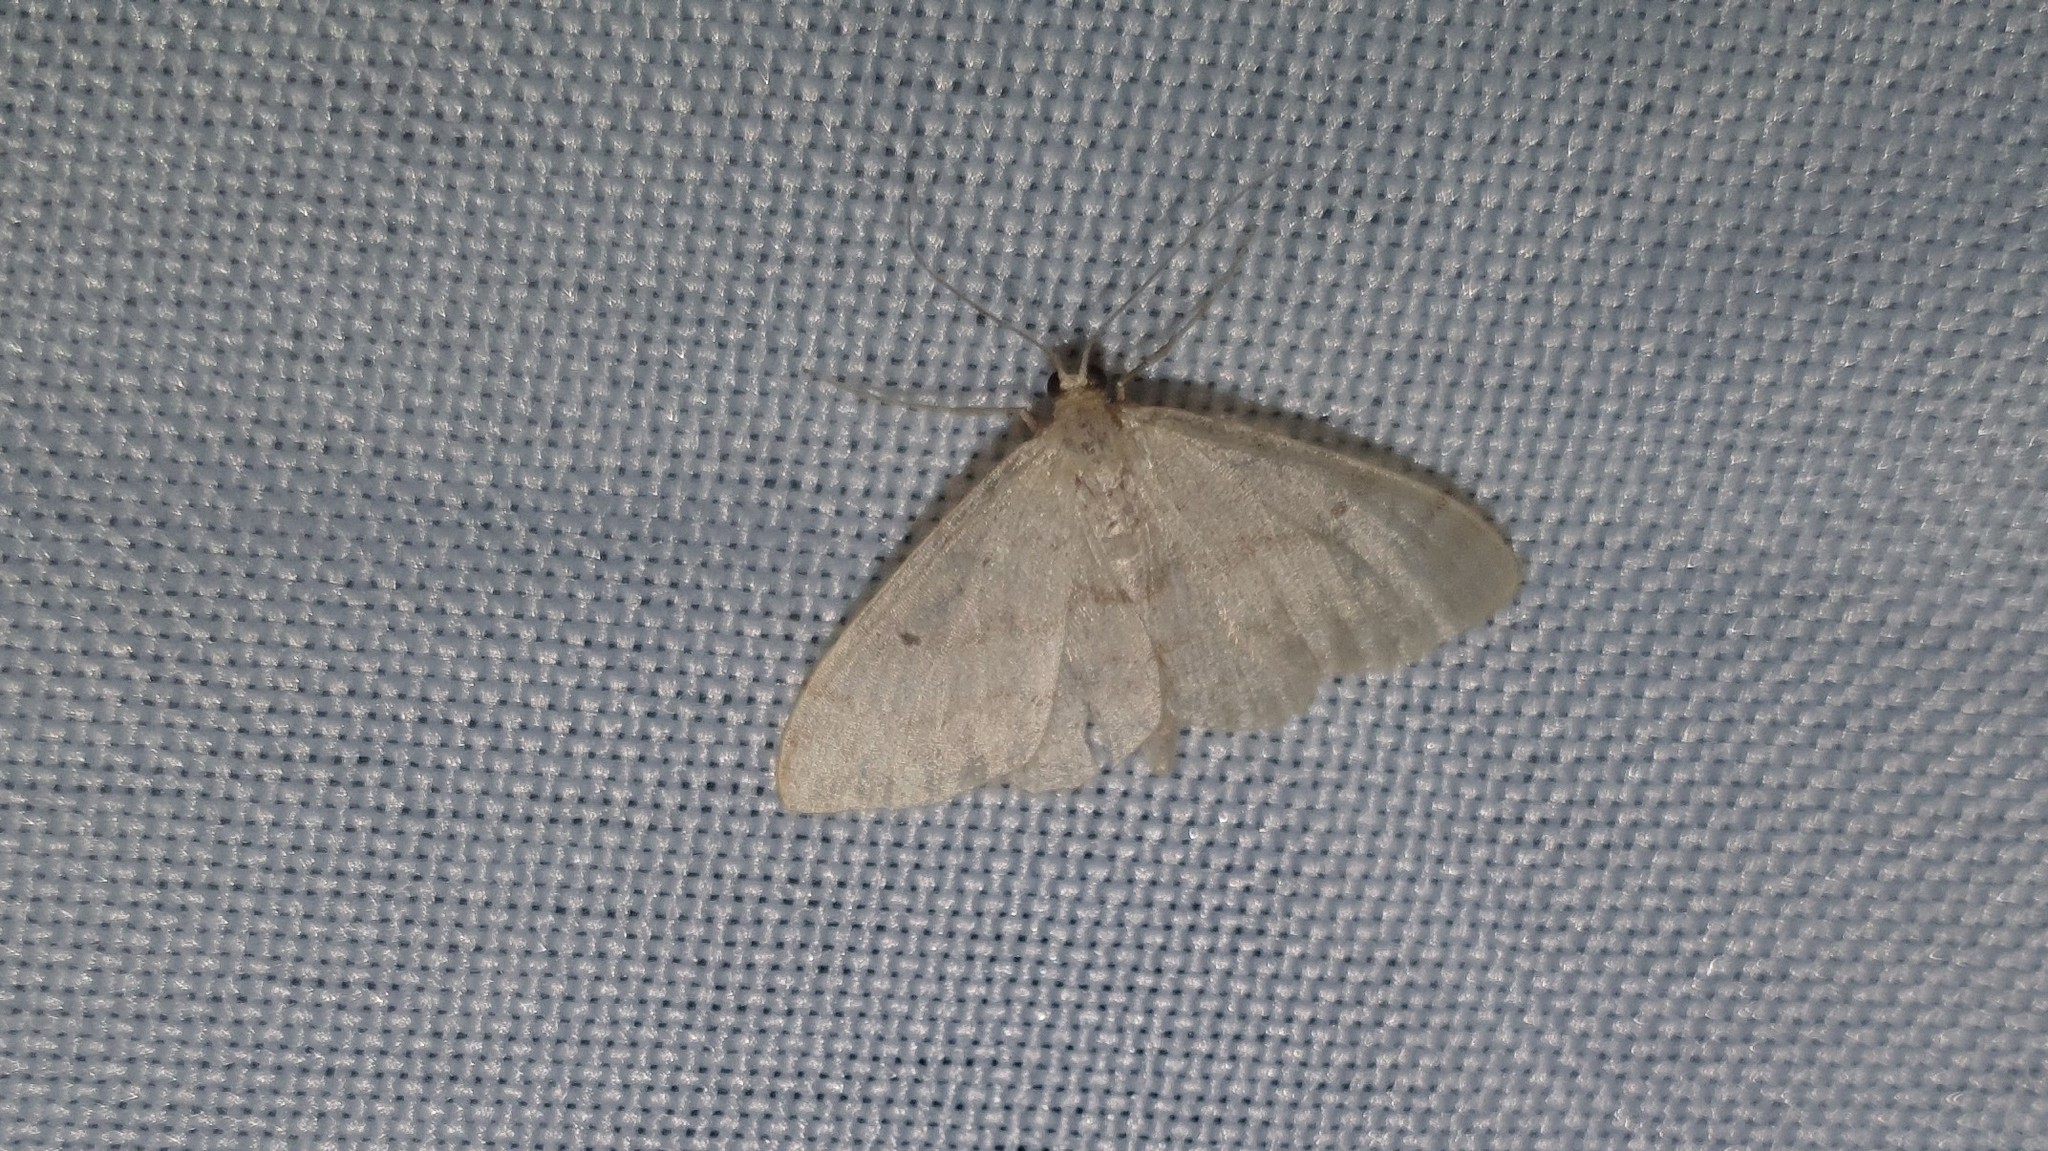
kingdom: Animalia
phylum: Arthropoda
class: Insecta
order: Lepidoptera
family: Geometridae
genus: Idaea
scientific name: Idaea biselata
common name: Small fan-footed wave
